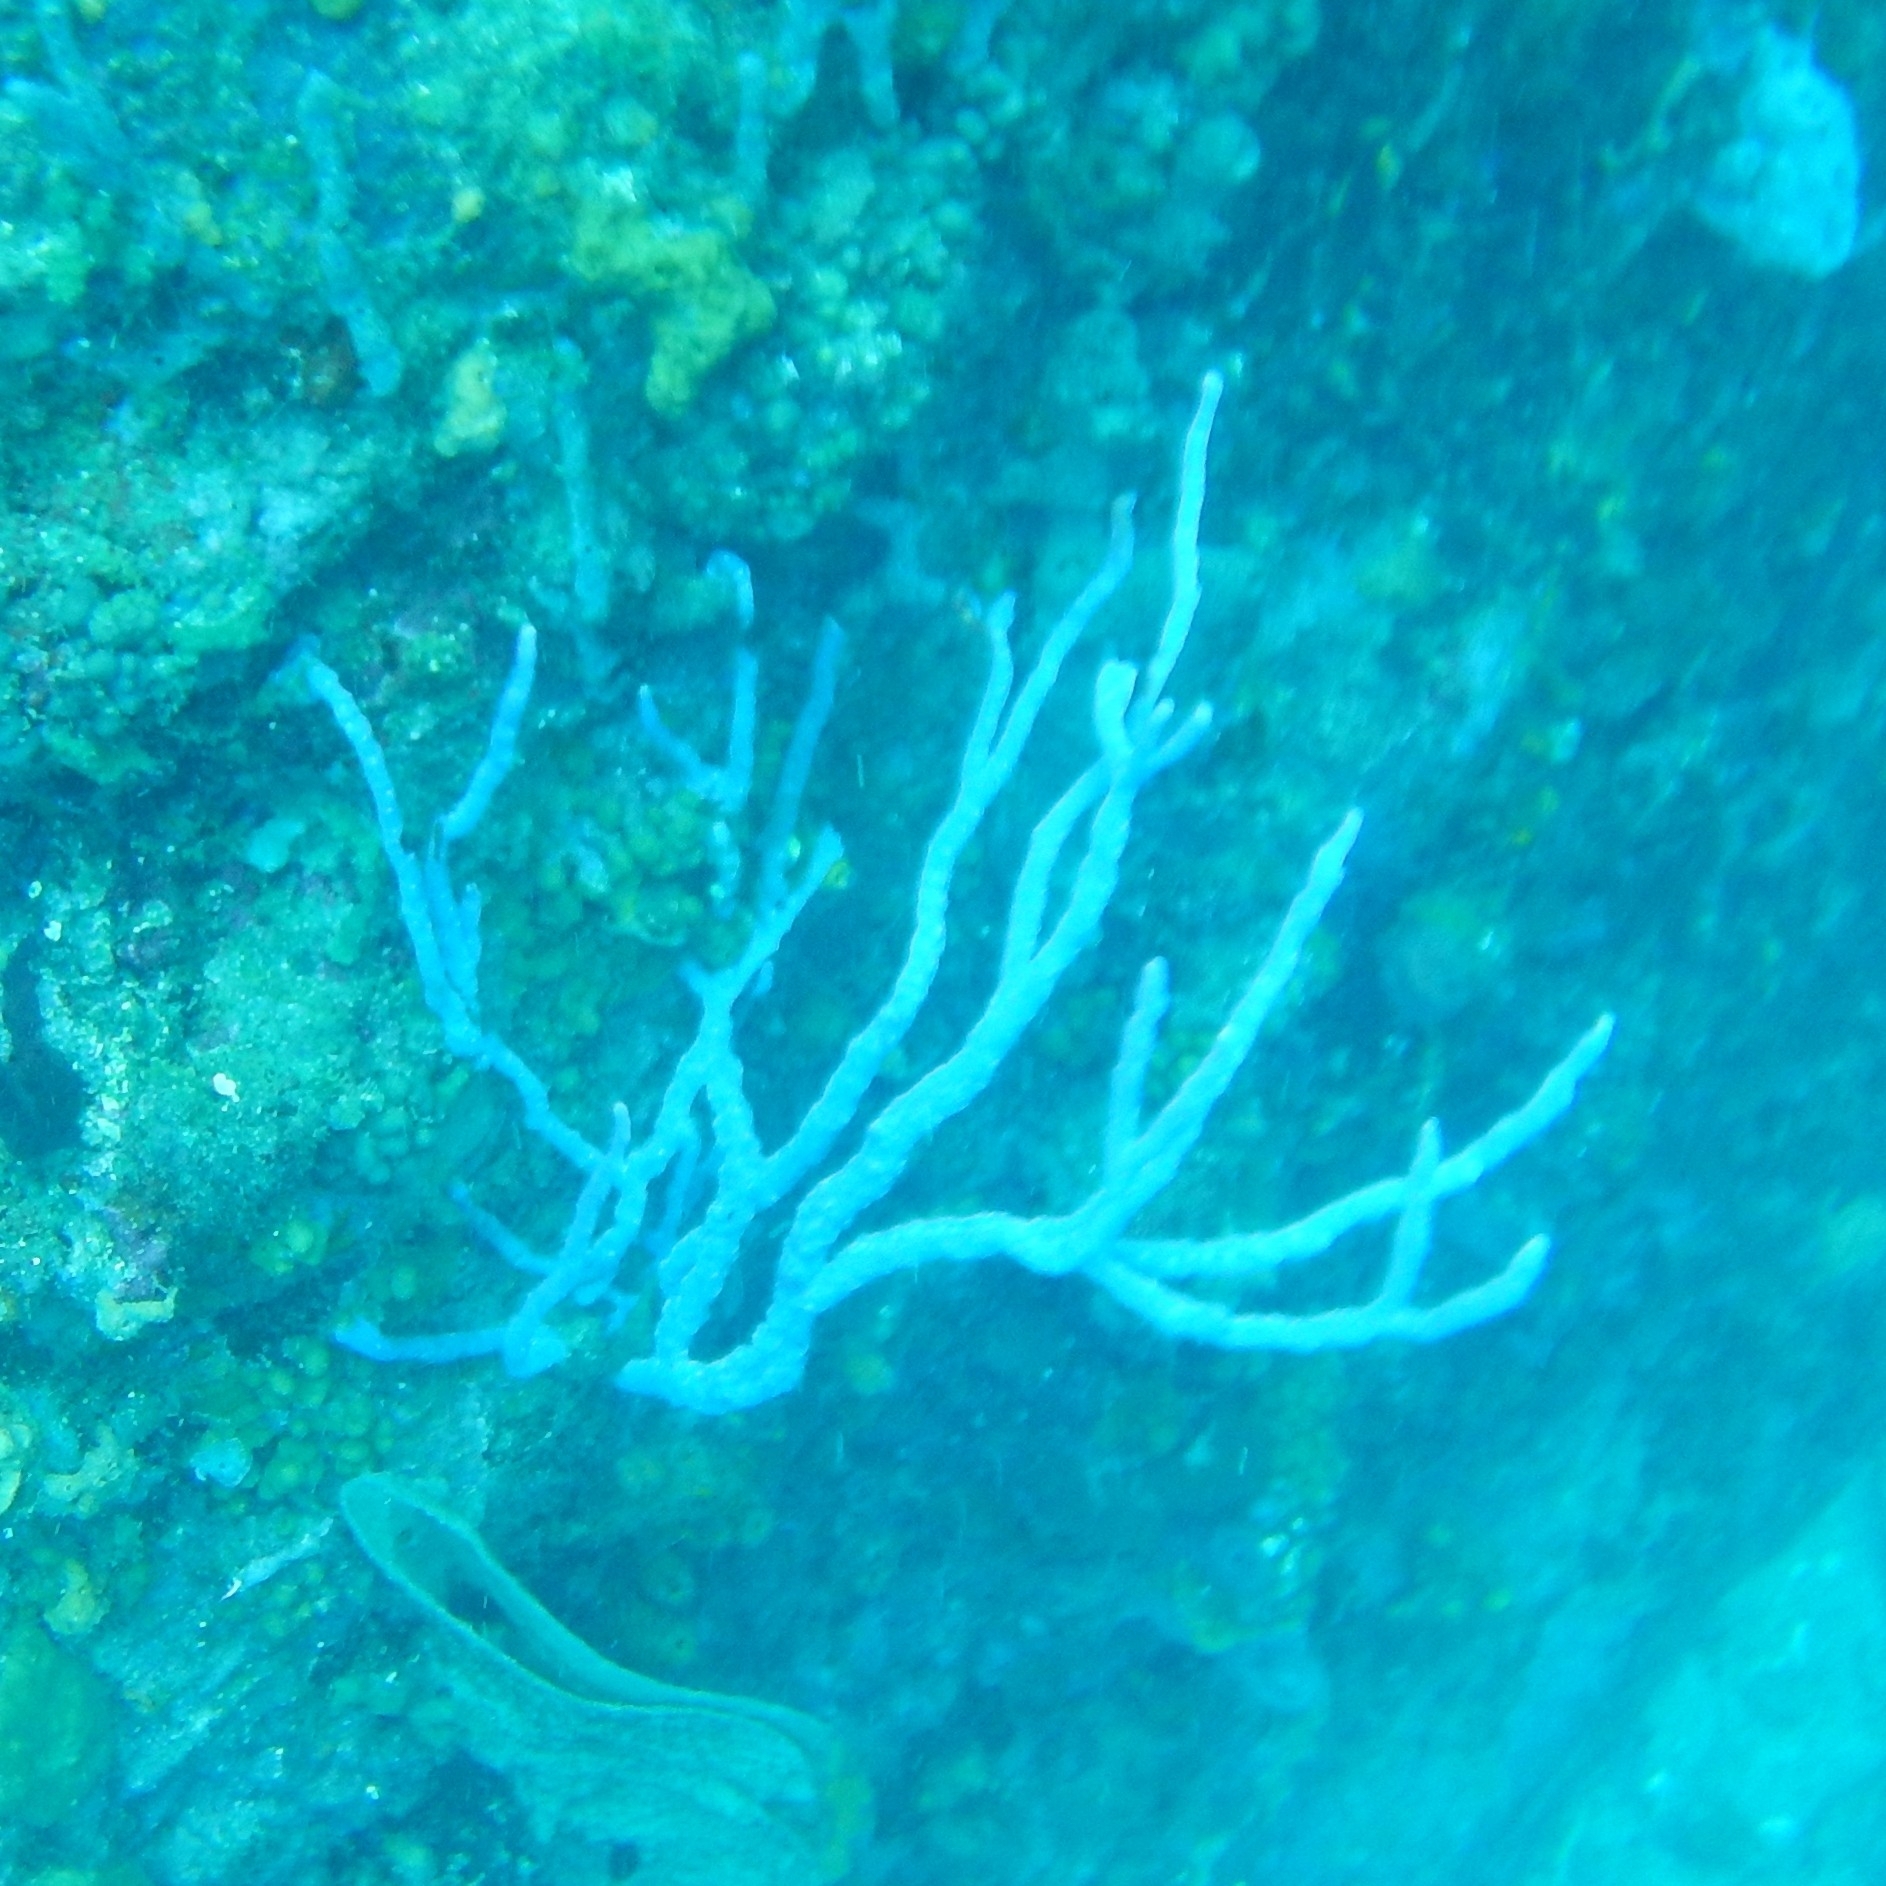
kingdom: Animalia
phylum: Porifera
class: Demospongiae
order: Verongiida
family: Aplysinidae
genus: Aplysina
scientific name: Aplysina cauliformis
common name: Branching candle sponge
